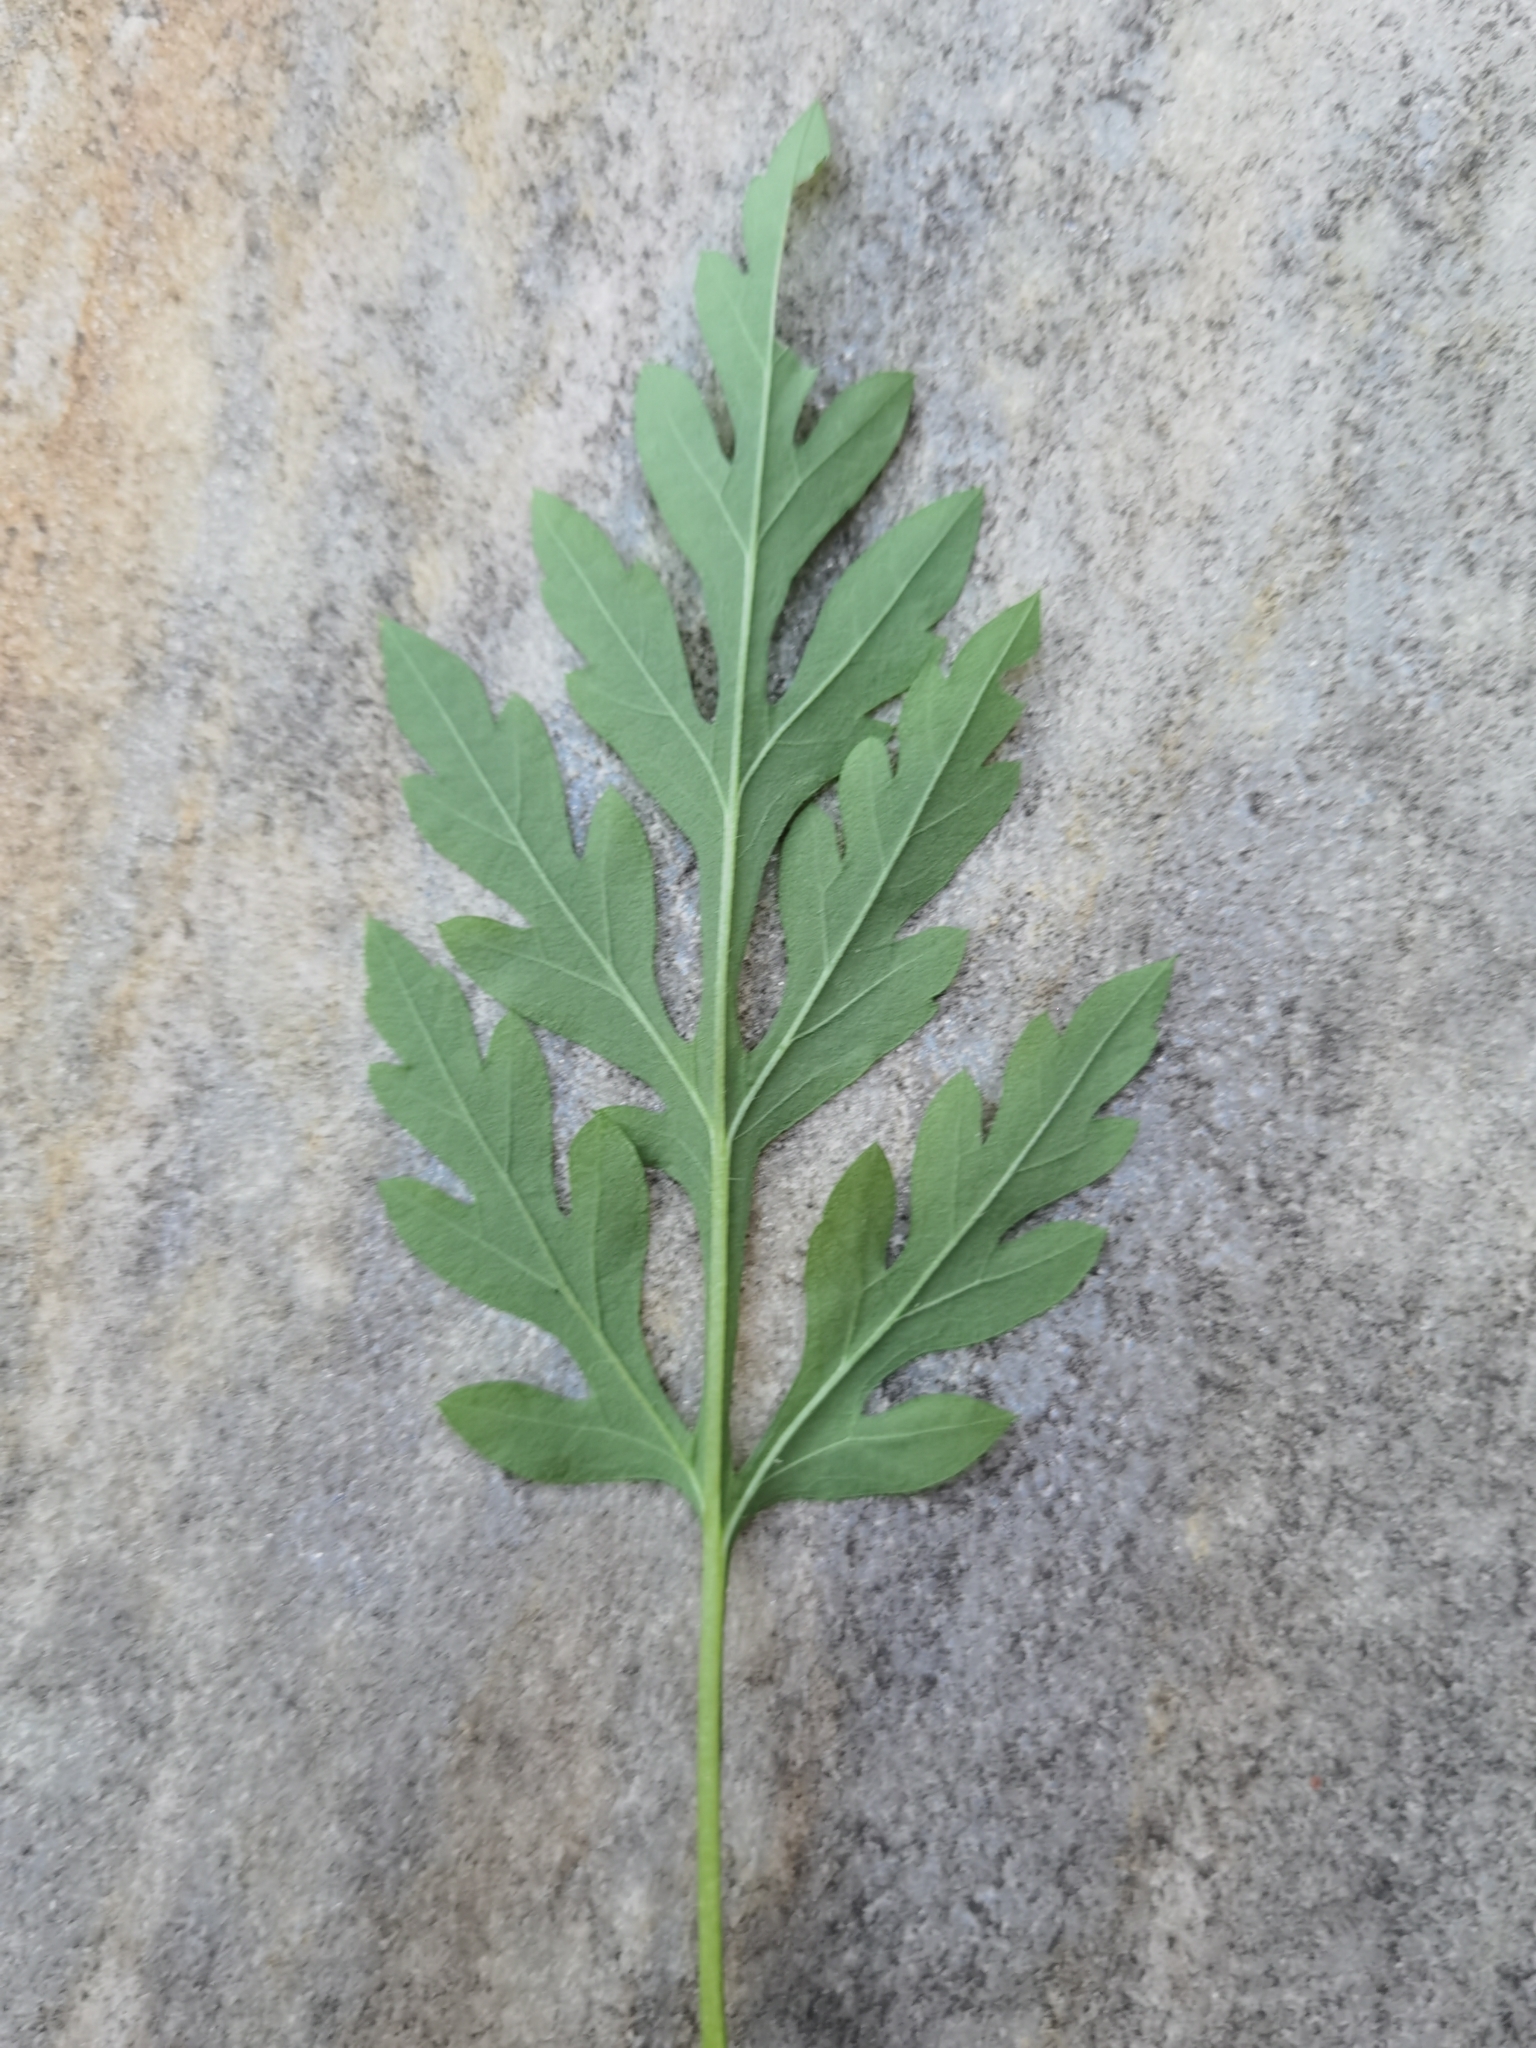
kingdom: Plantae
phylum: Tracheophyta
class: Magnoliopsida
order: Asterales
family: Asteraceae
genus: Ambrosia
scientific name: Ambrosia artemisiifolia
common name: Annual ragweed
